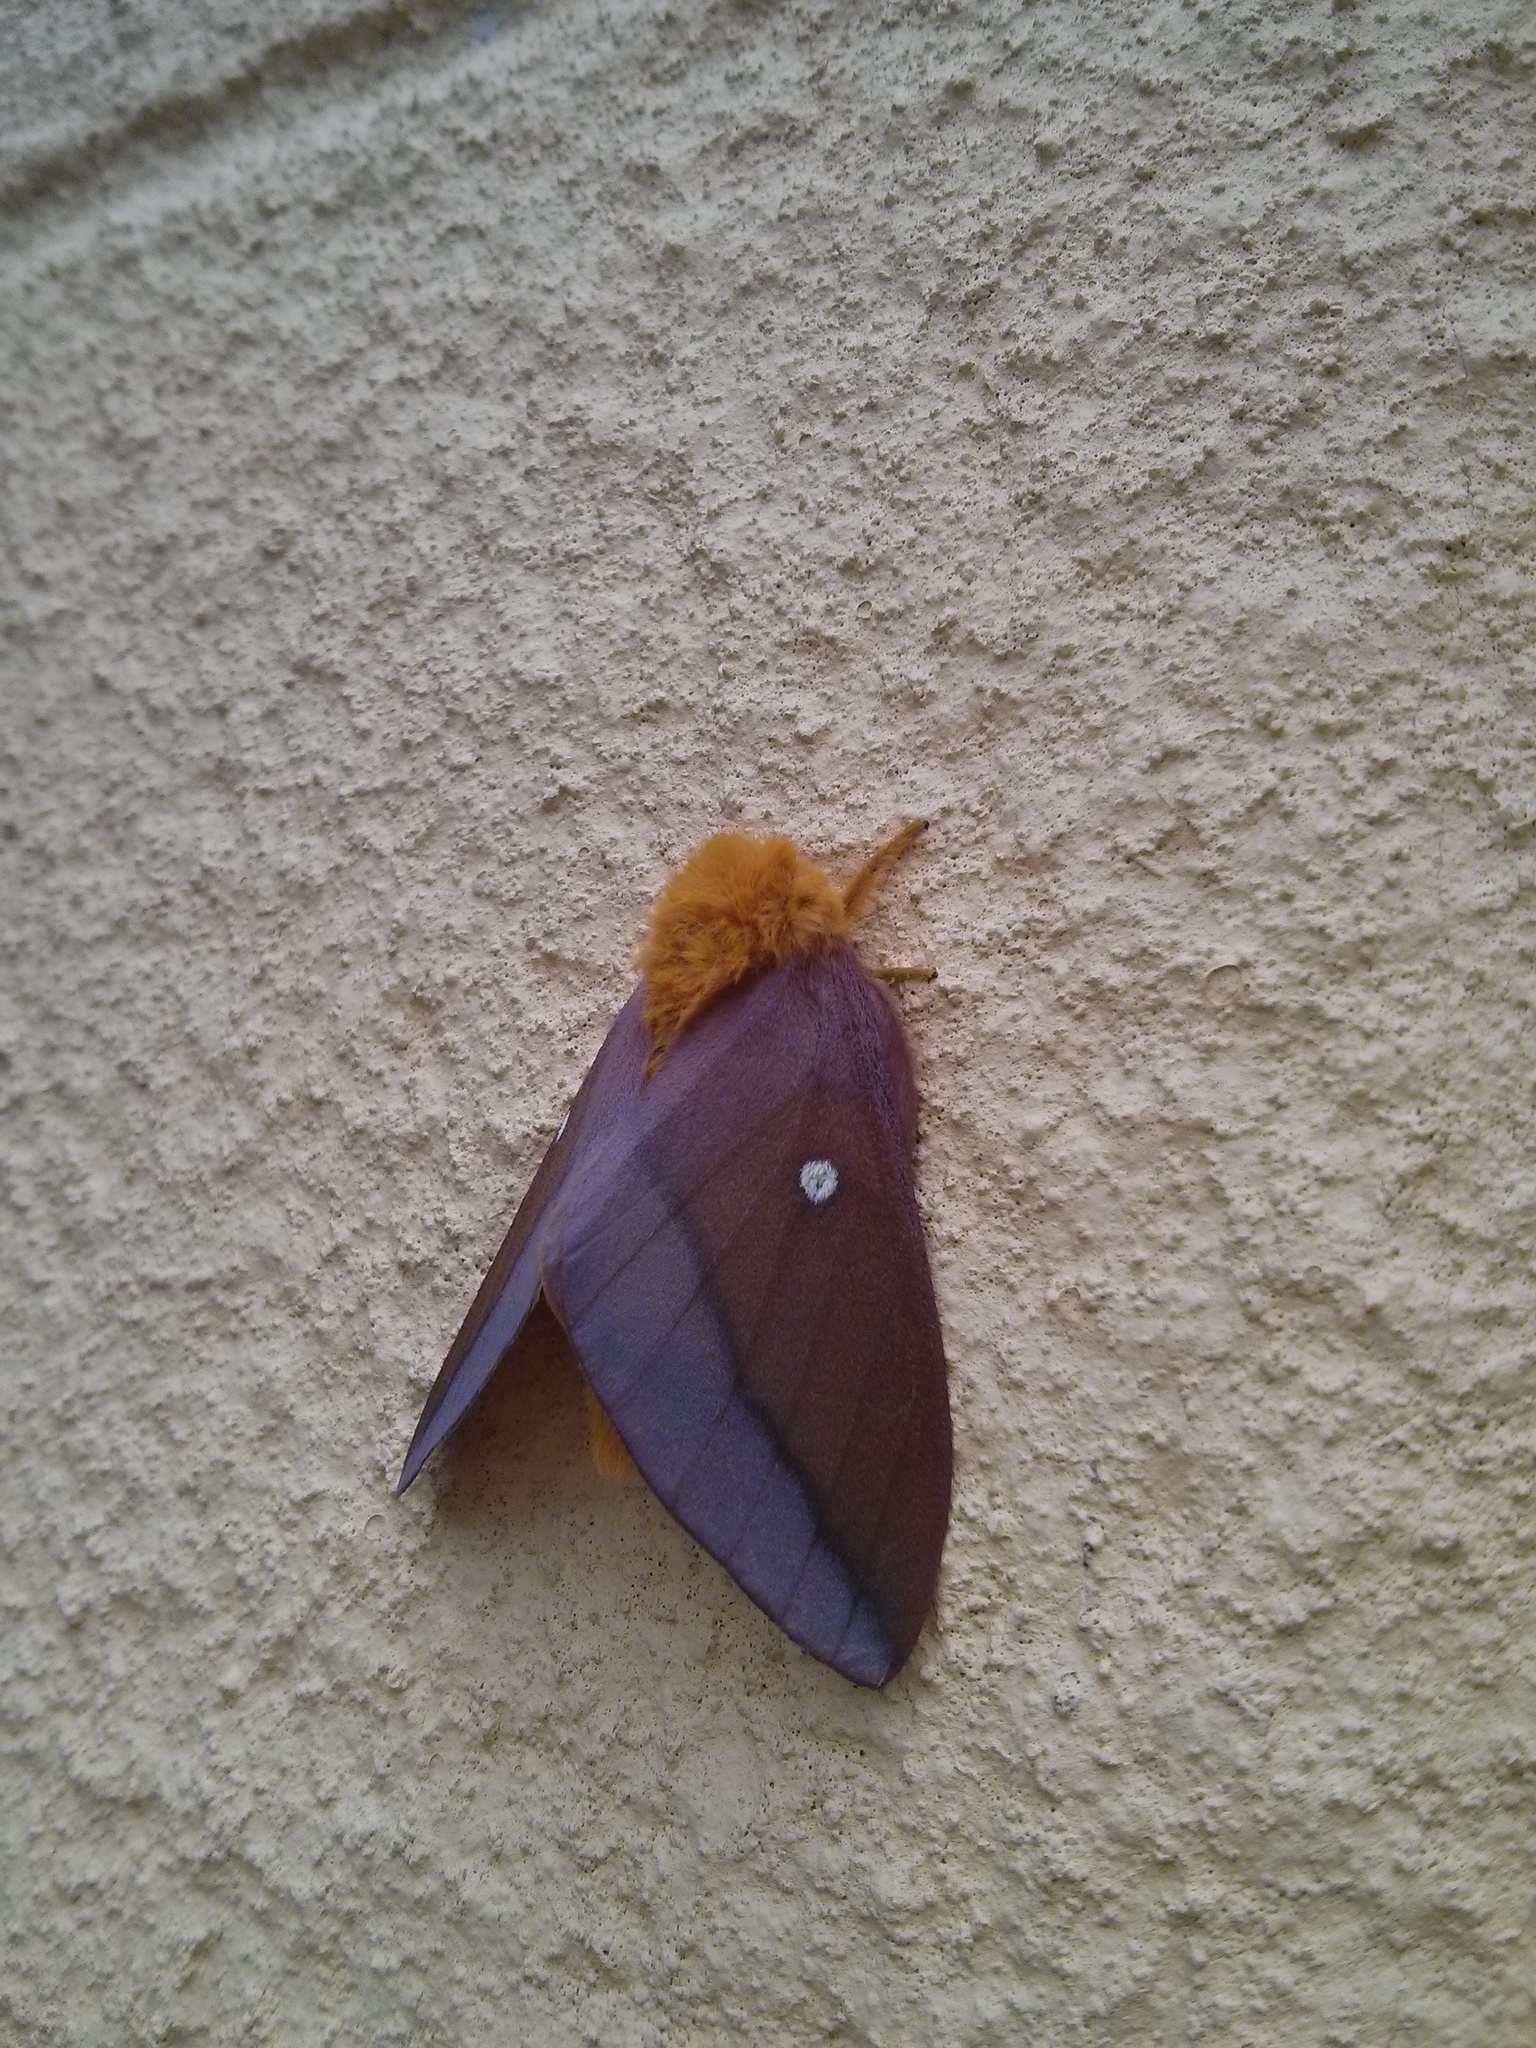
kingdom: Animalia
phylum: Arthropoda
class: Insecta
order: Lepidoptera
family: Saturniidae
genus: Anisota
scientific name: Anisota virginiensis
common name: Pink striped oakworm moth
